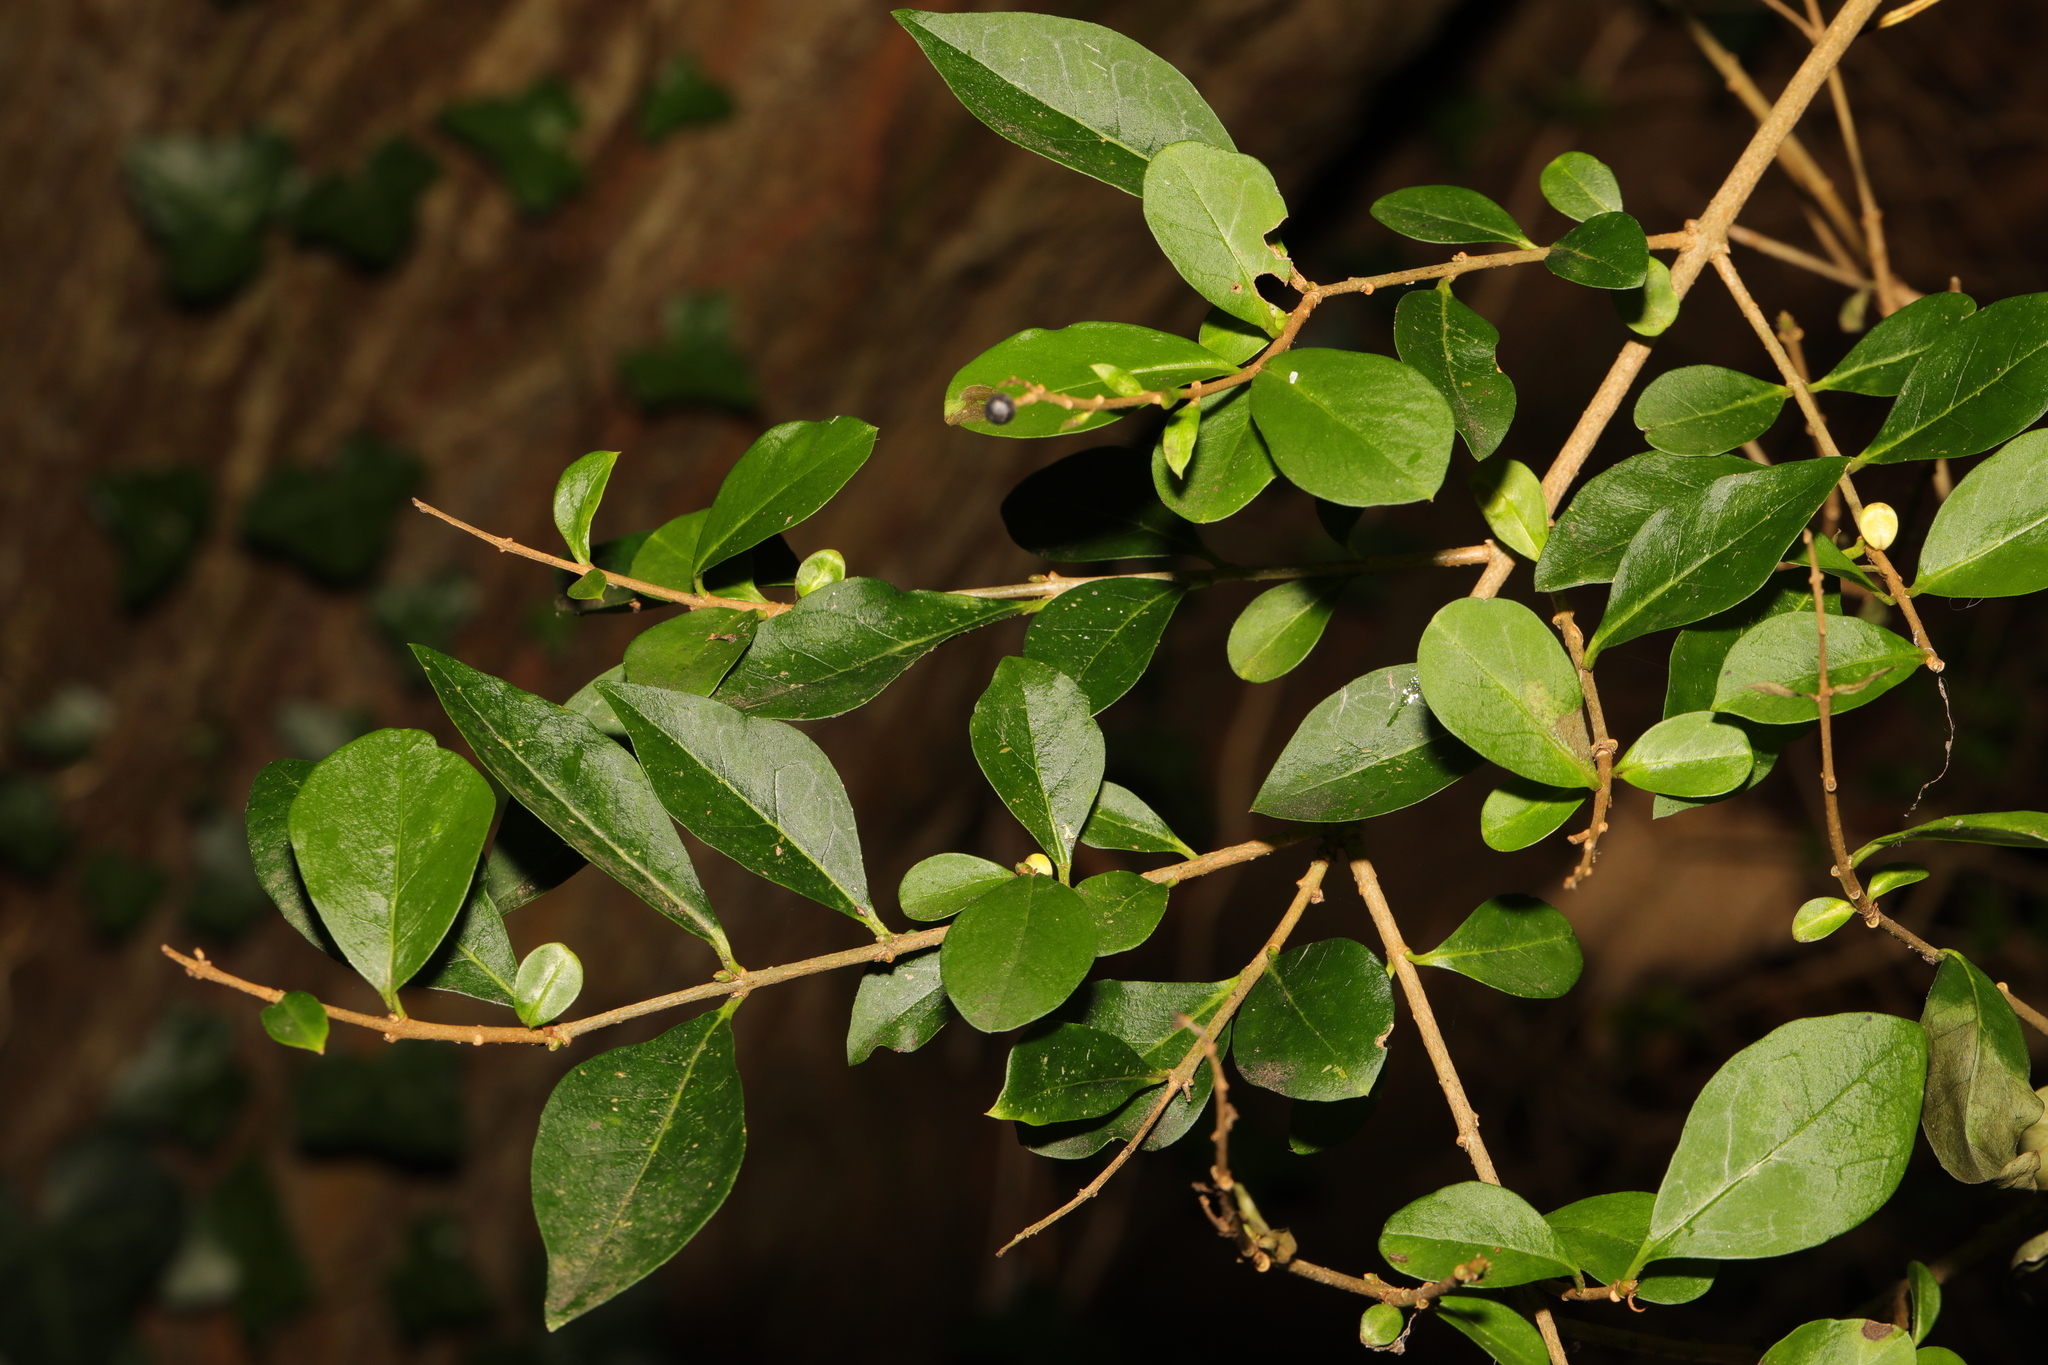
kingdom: Plantae
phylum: Tracheophyta
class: Magnoliopsida
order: Lamiales
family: Oleaceae
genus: Ligustrum
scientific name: Ligustrum ovalifolium
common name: California privet
